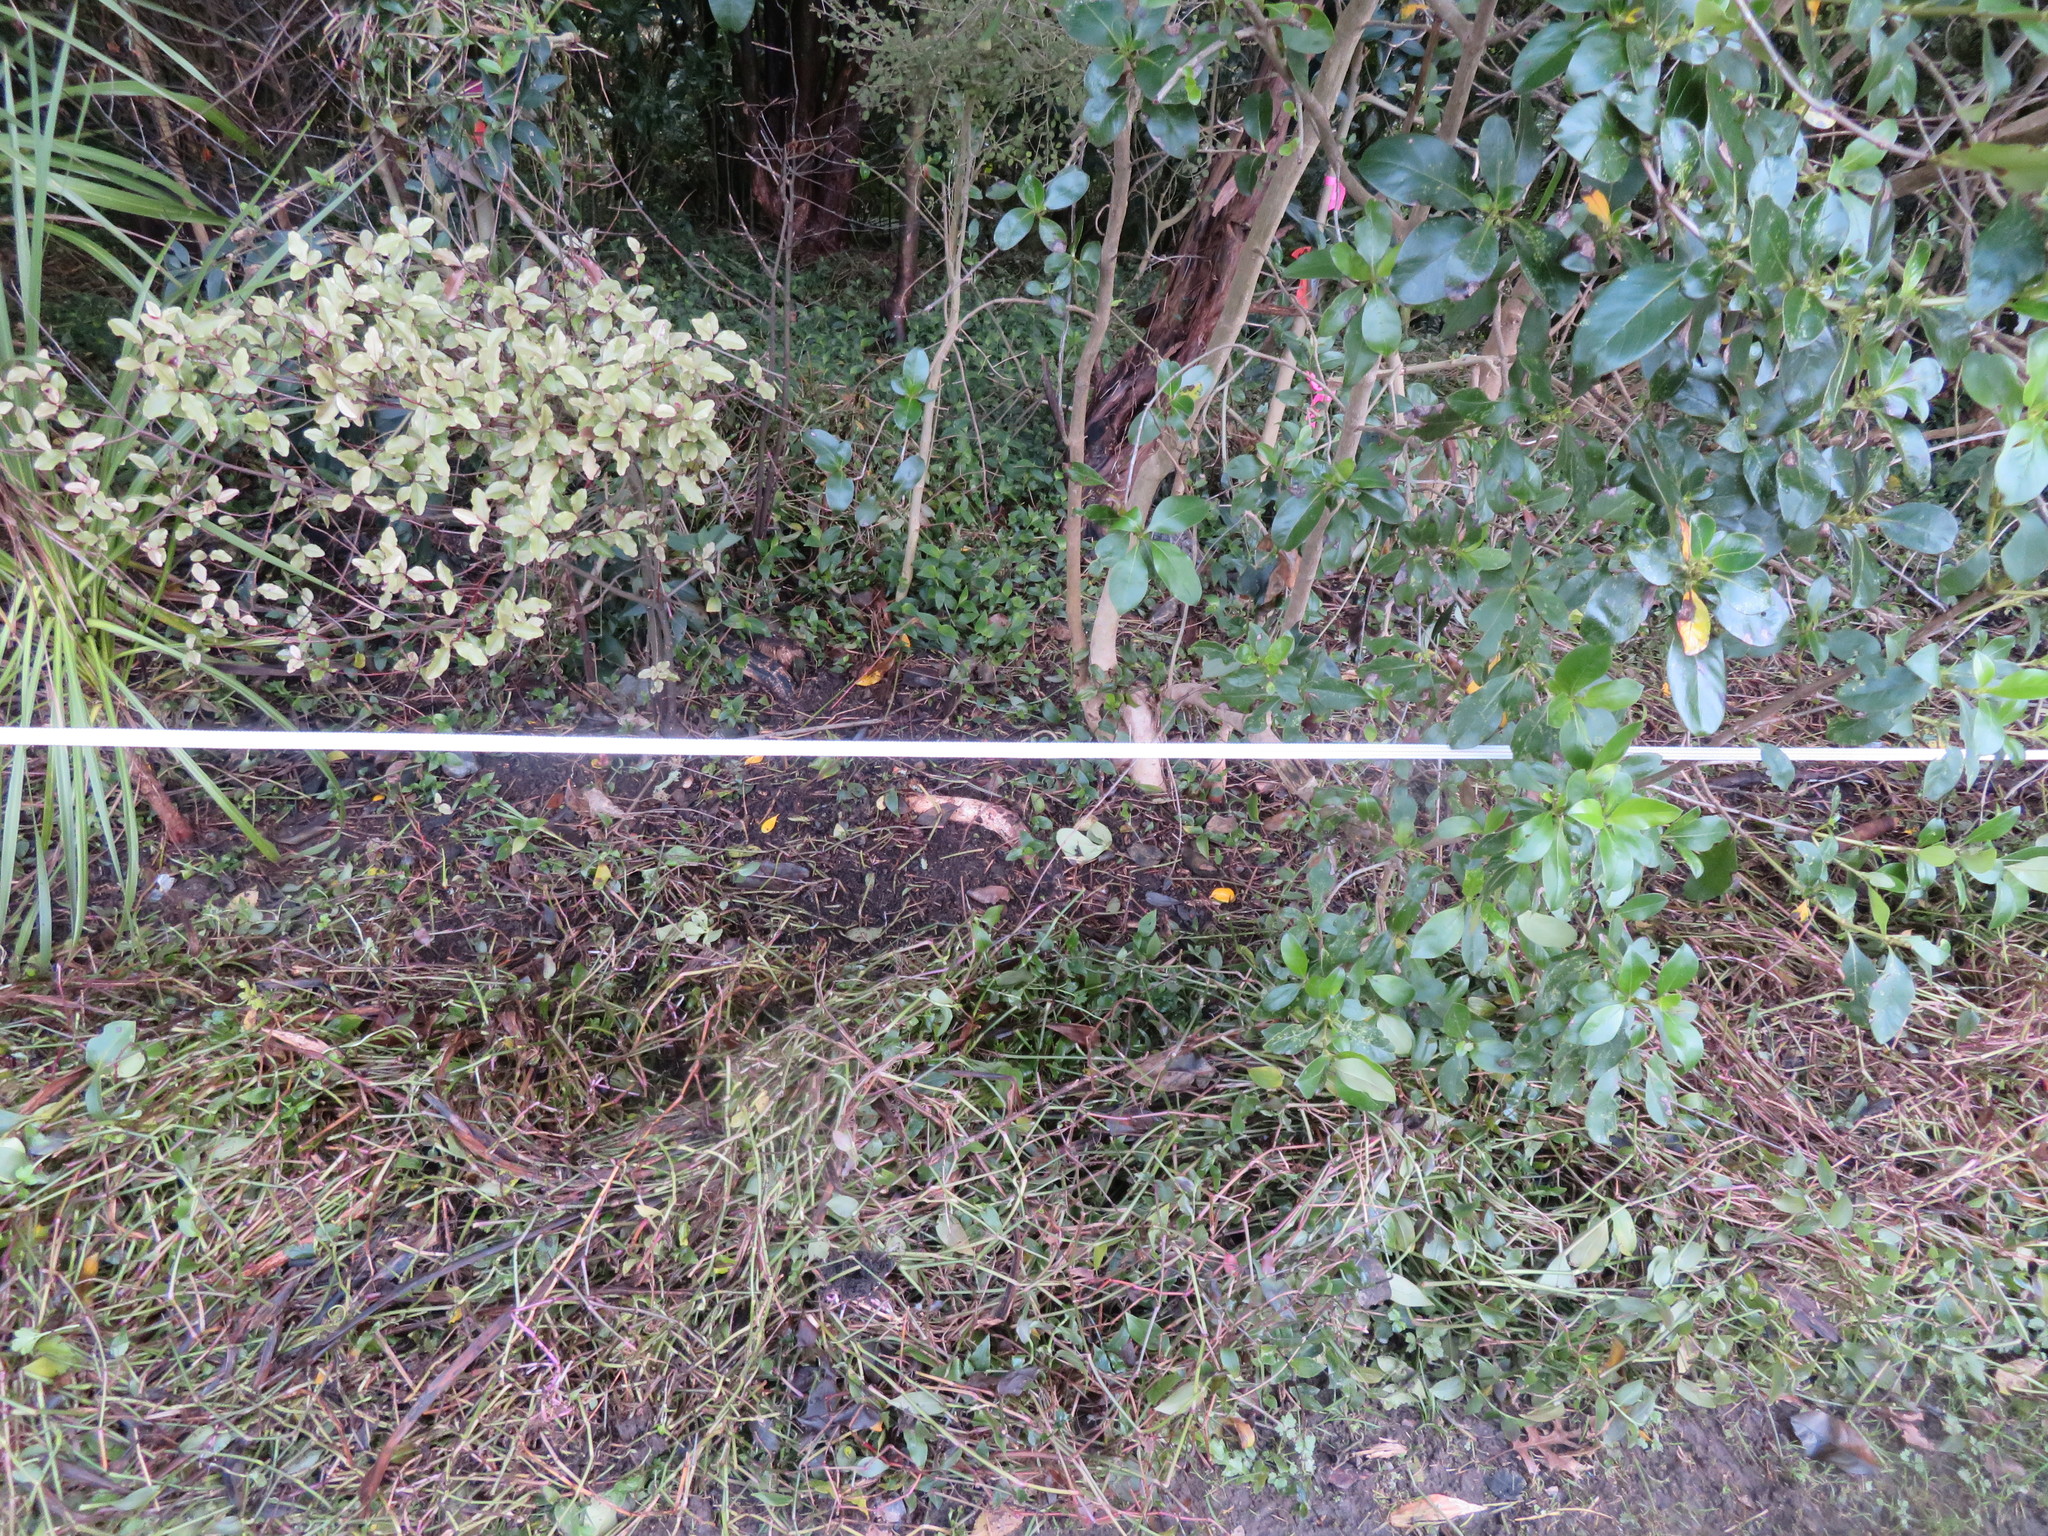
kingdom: Plantae
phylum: Tracheophyta
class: Magnoliopsida
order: Ericales
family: Primulaceae
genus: Myrsine
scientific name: Myrsine australis
